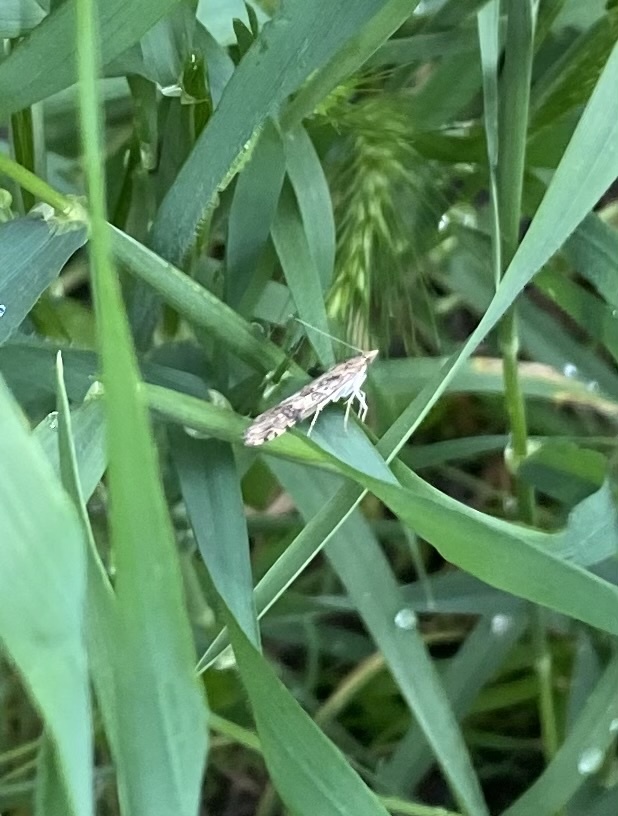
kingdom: Animalia
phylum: Arthropoda
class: Insecta
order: Lepidoptera
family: Crambidae
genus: Nomophila
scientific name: Nomophila noctuella
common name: Rush veneer
